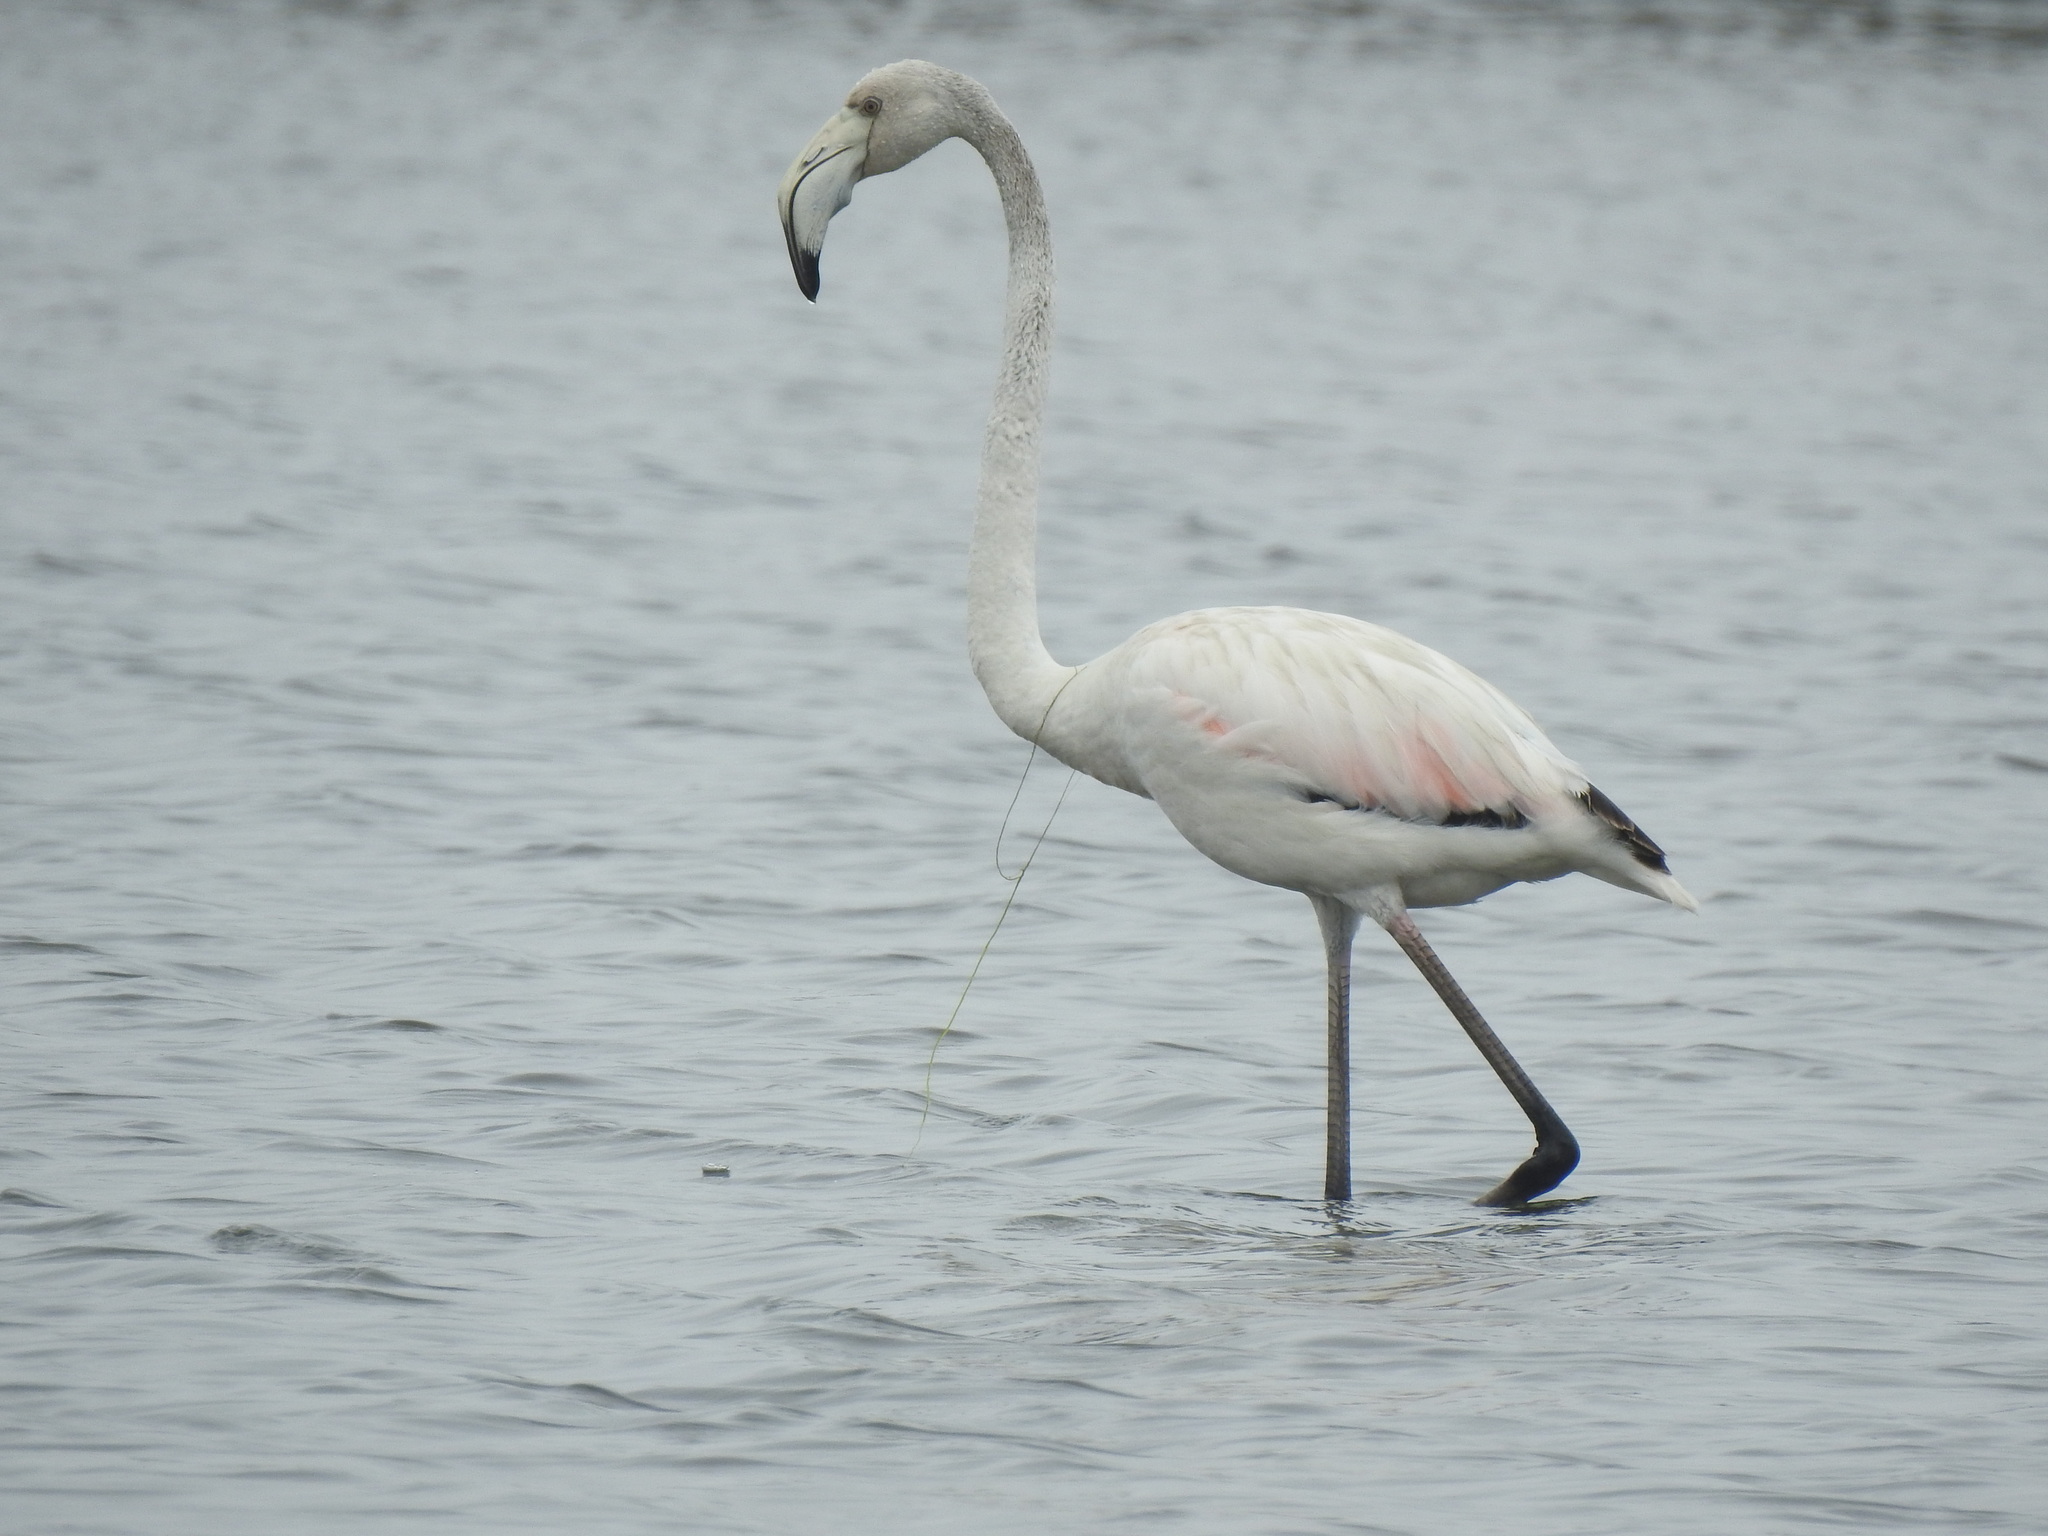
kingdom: Animalia
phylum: Chordata
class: Aves
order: Phoenicopteriformes
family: Phoenicopteridae
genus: Phoenicopterus
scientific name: Phoenicopterus roseus
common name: Greater flamingo
